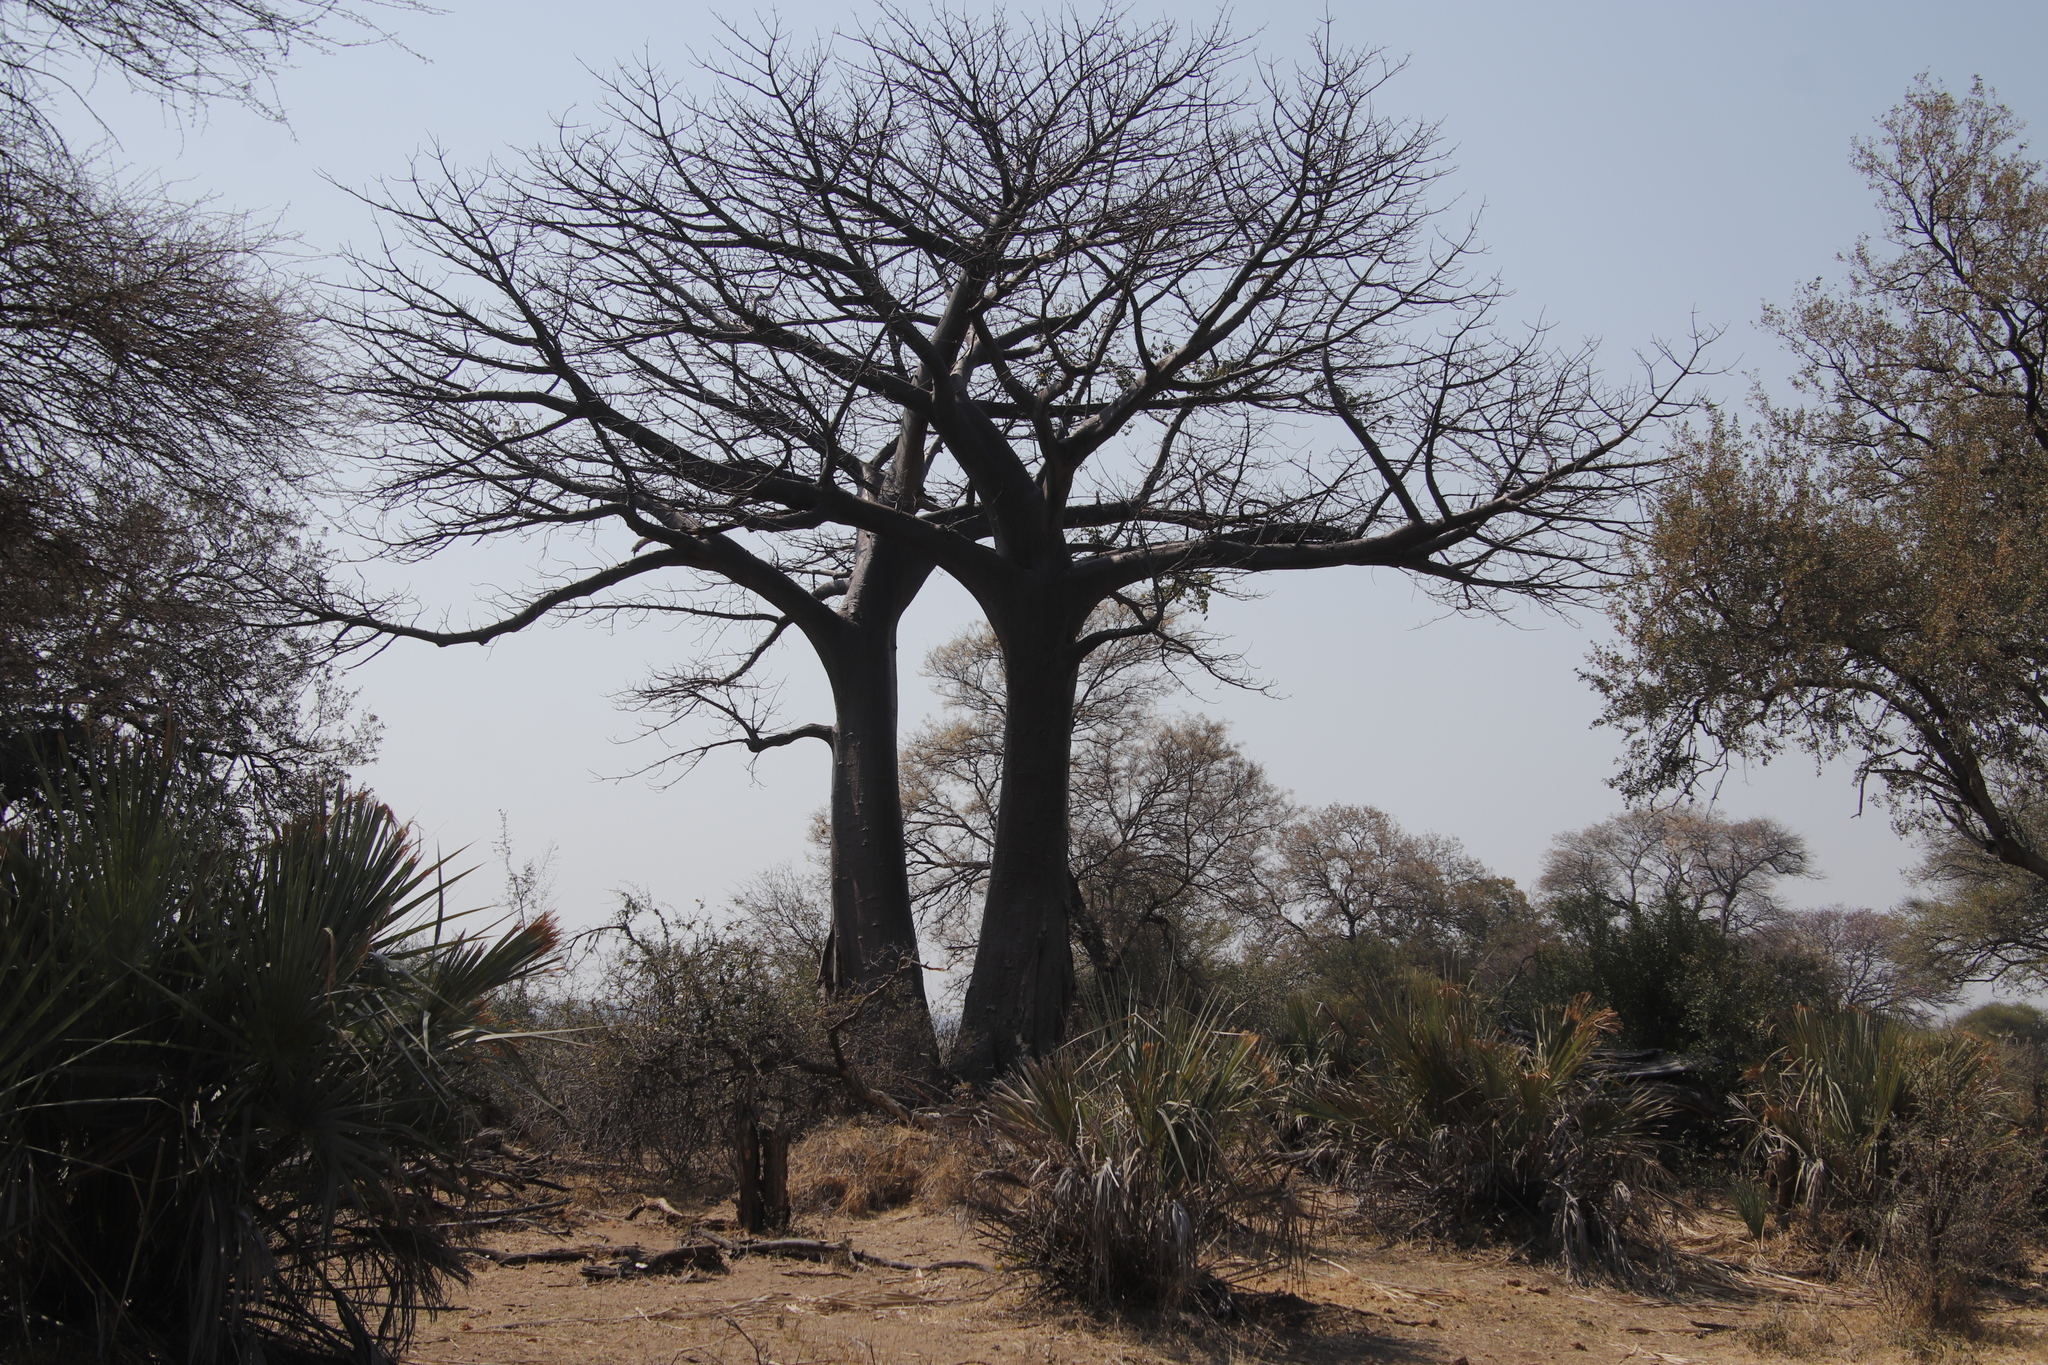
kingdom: Plantae
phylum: Tracheophyta
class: Magnoliopsida
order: Malvales
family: Malvaceae
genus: Adansonia
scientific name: Adansonia digitata
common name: Dead-rat-tree
